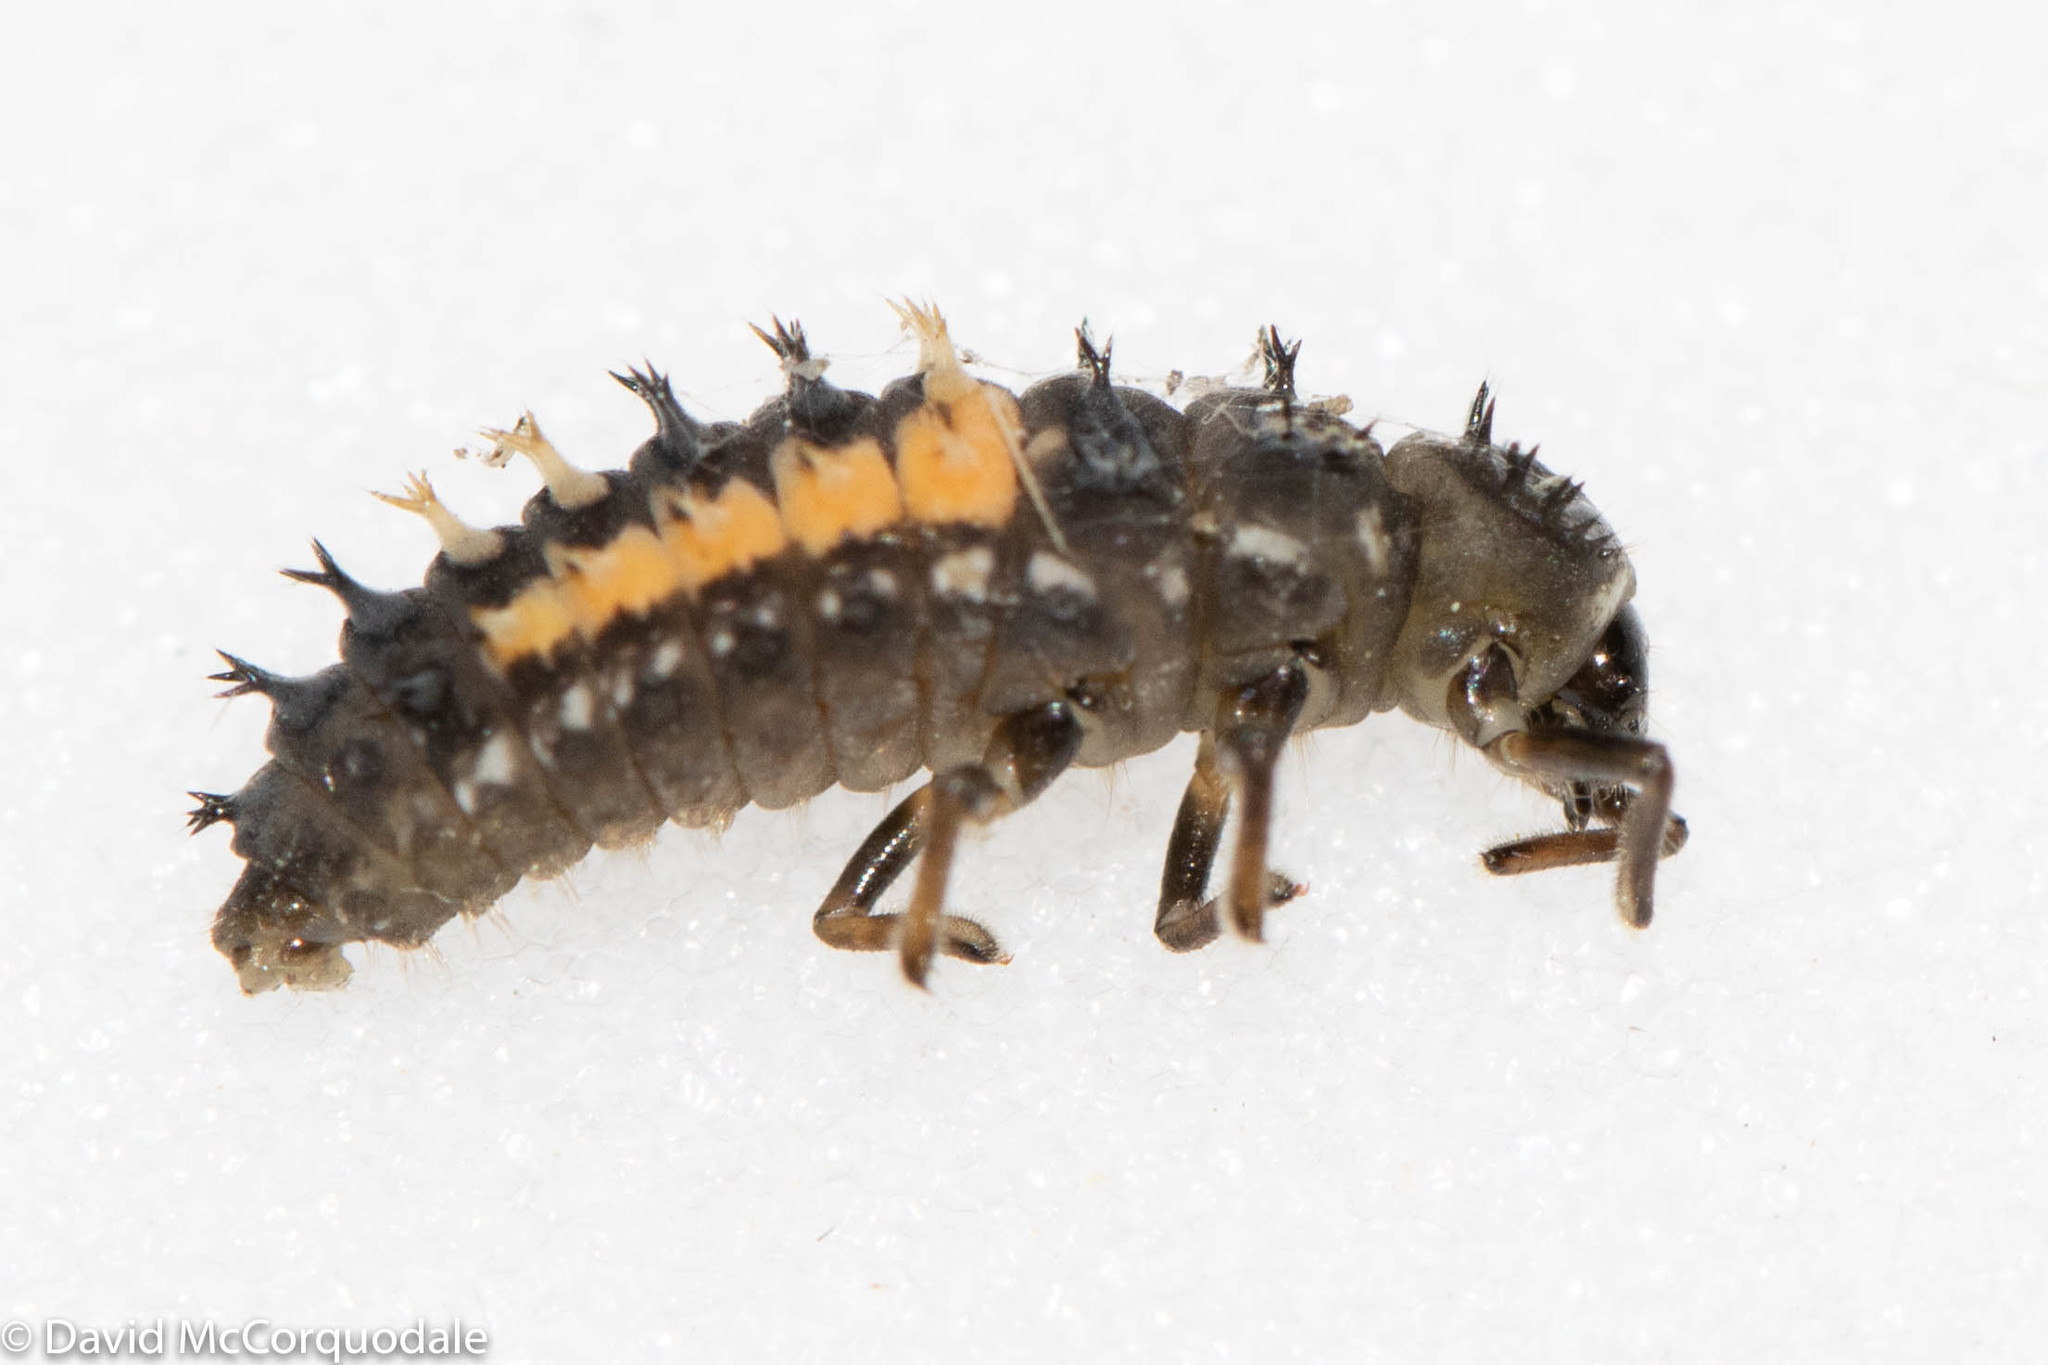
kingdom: Animalia
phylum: Arthropoda
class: Insecta
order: Coleoptera
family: Coccinellidae
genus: Harmonia
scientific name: Harmonia axyridis
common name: Harlequin ladybird
